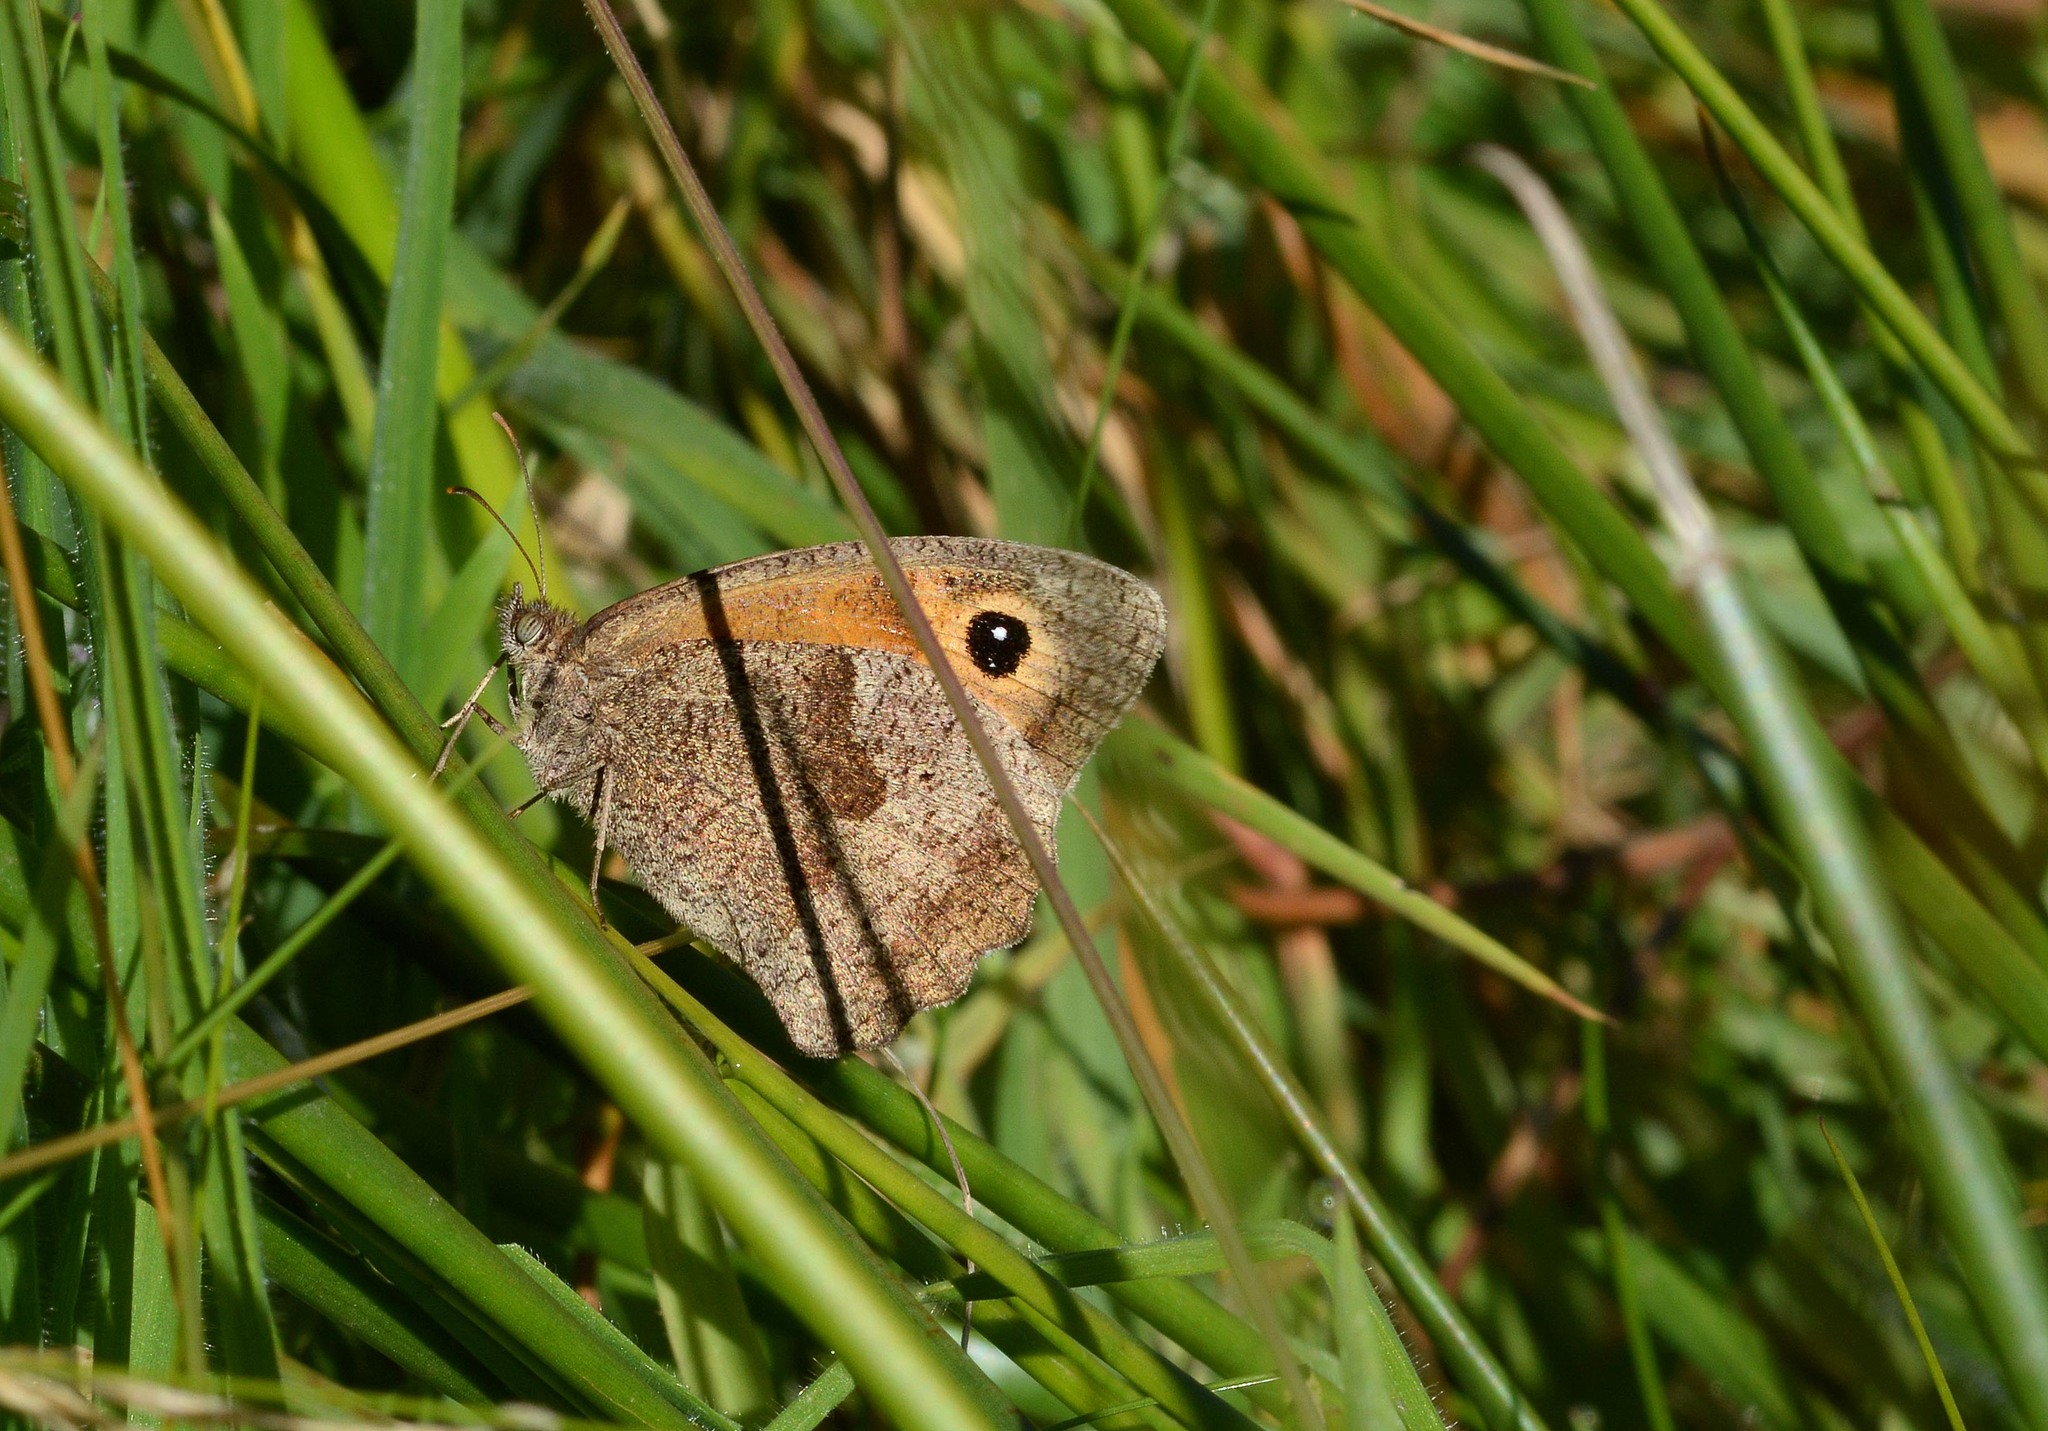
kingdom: Animalia
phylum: Arthropoda
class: Insecta
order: Lepidoptera
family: Nymphalidae
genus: Maniola
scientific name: Maniola jurtina
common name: Meadow brown
